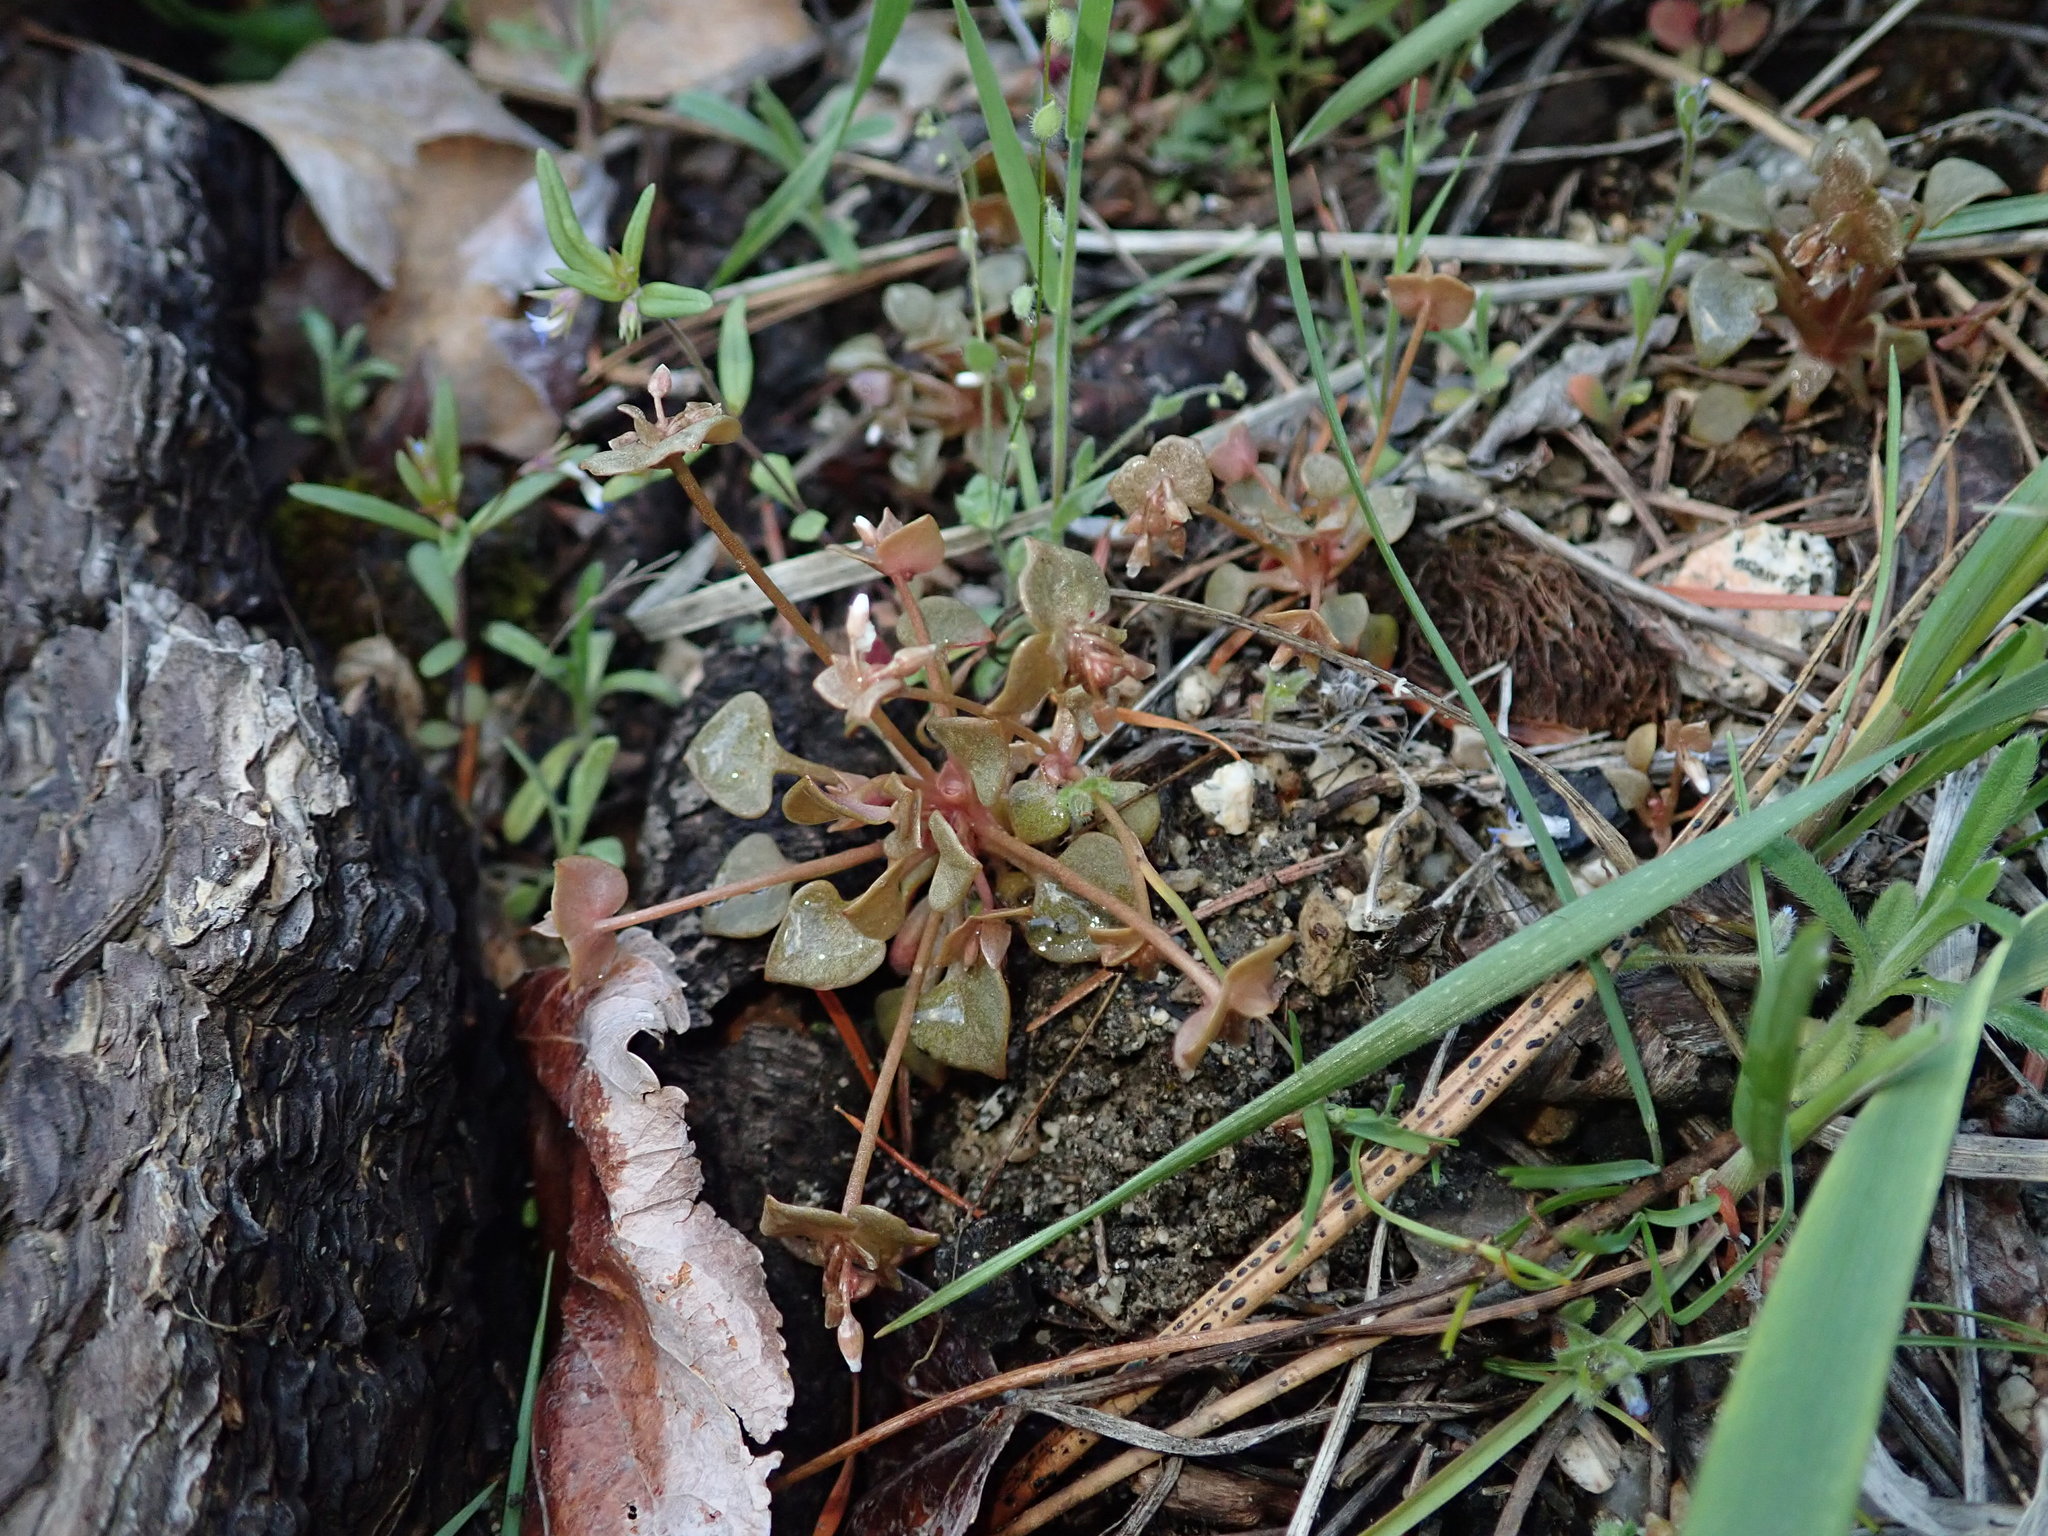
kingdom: Plantae
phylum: Tracheophyta
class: Magnoliopsida
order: Caryophyllales
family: Montiaceae
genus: Claytonia
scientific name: Claytonia rubra
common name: Erubescent miner's-lettuce
